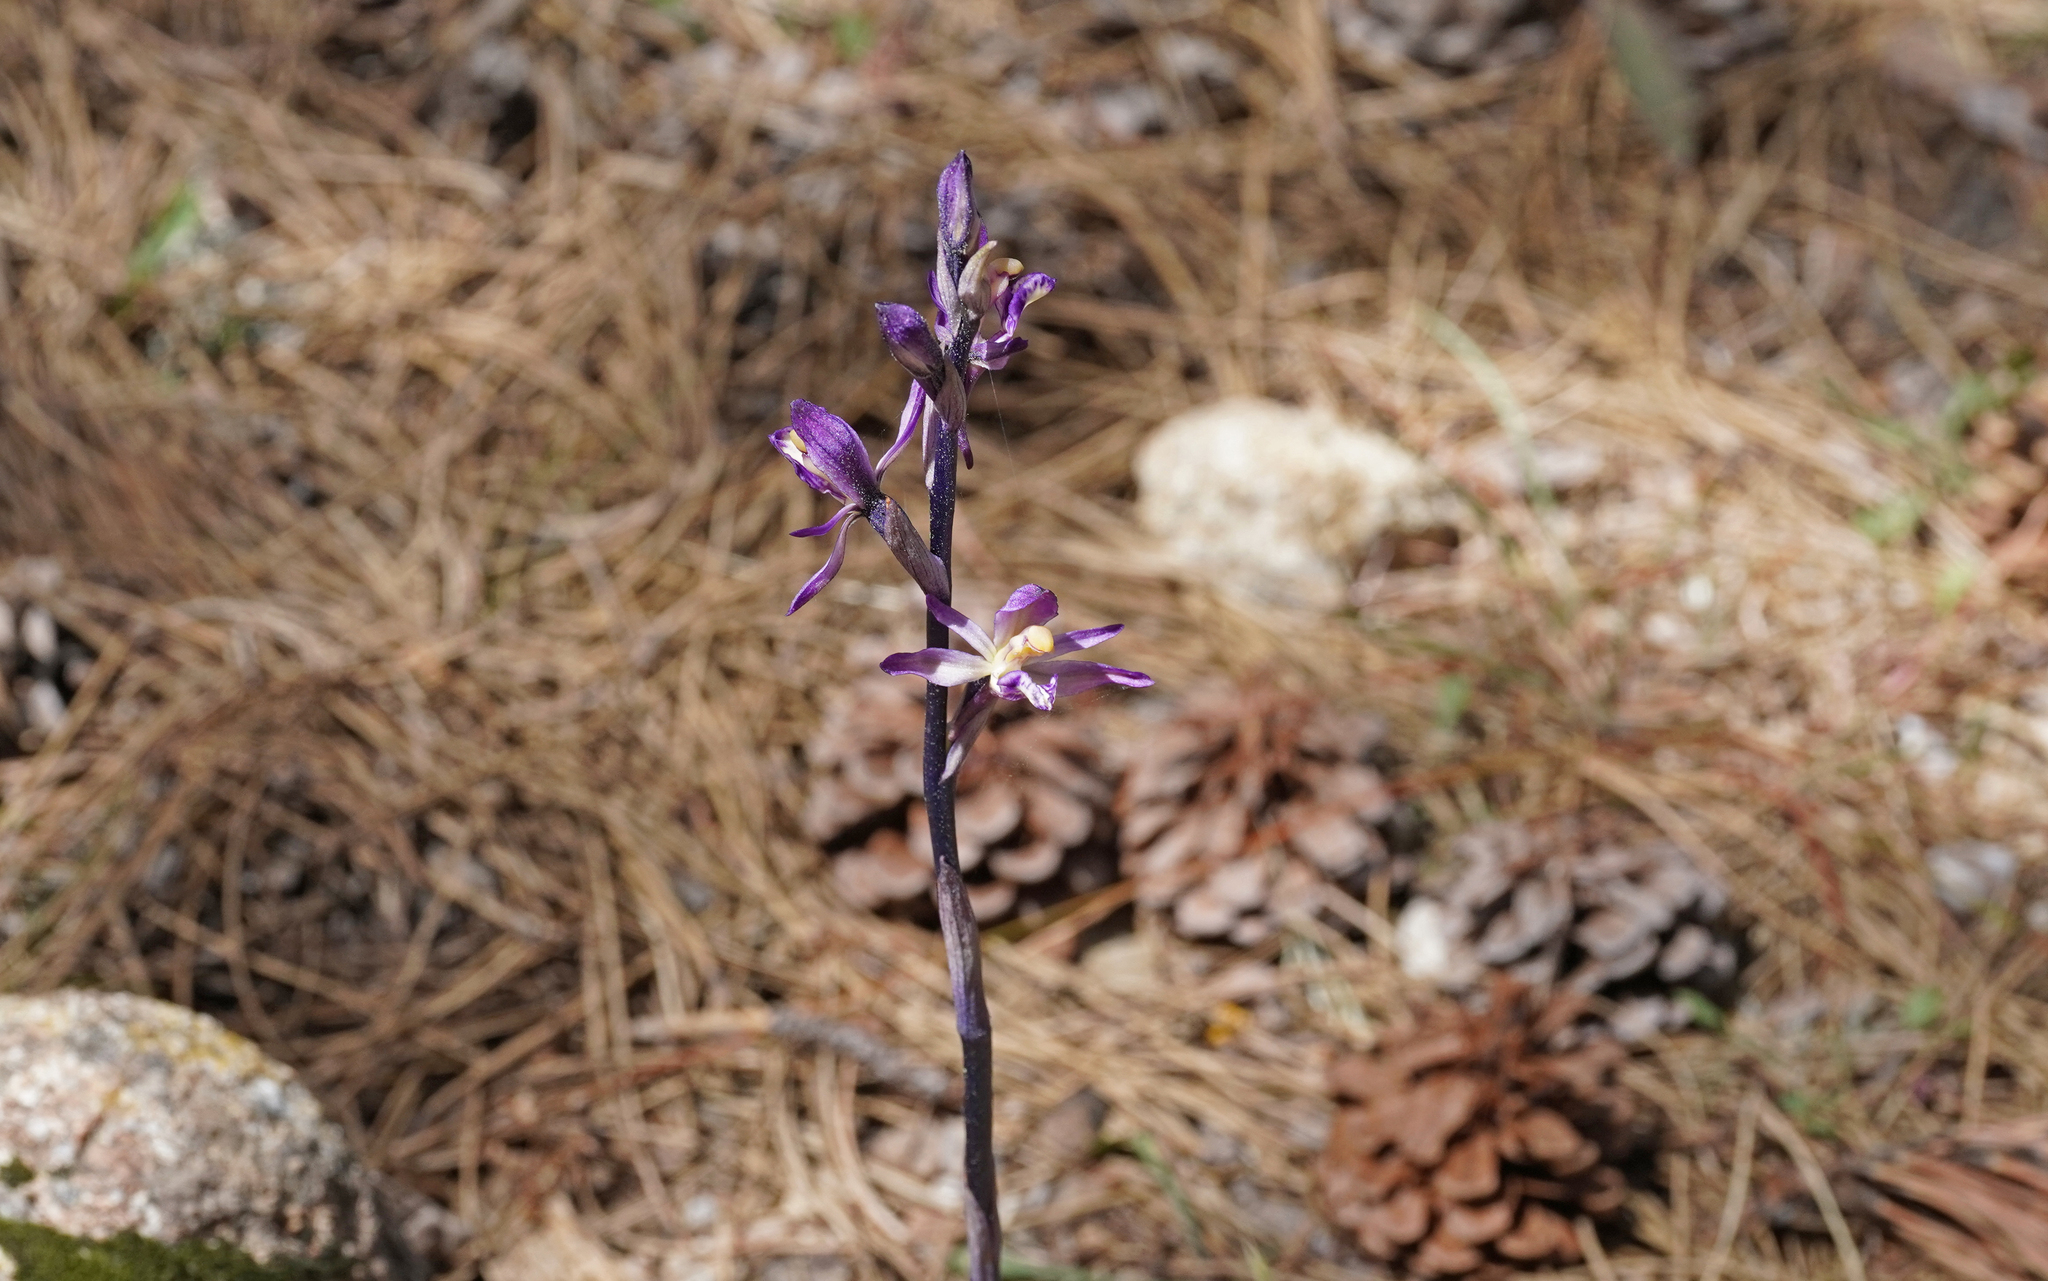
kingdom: Plantae
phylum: Tracheophyta
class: Liliopsida
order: Asparagales
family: Orchidaceae
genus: Limodorum
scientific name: Limodorum abortivum
